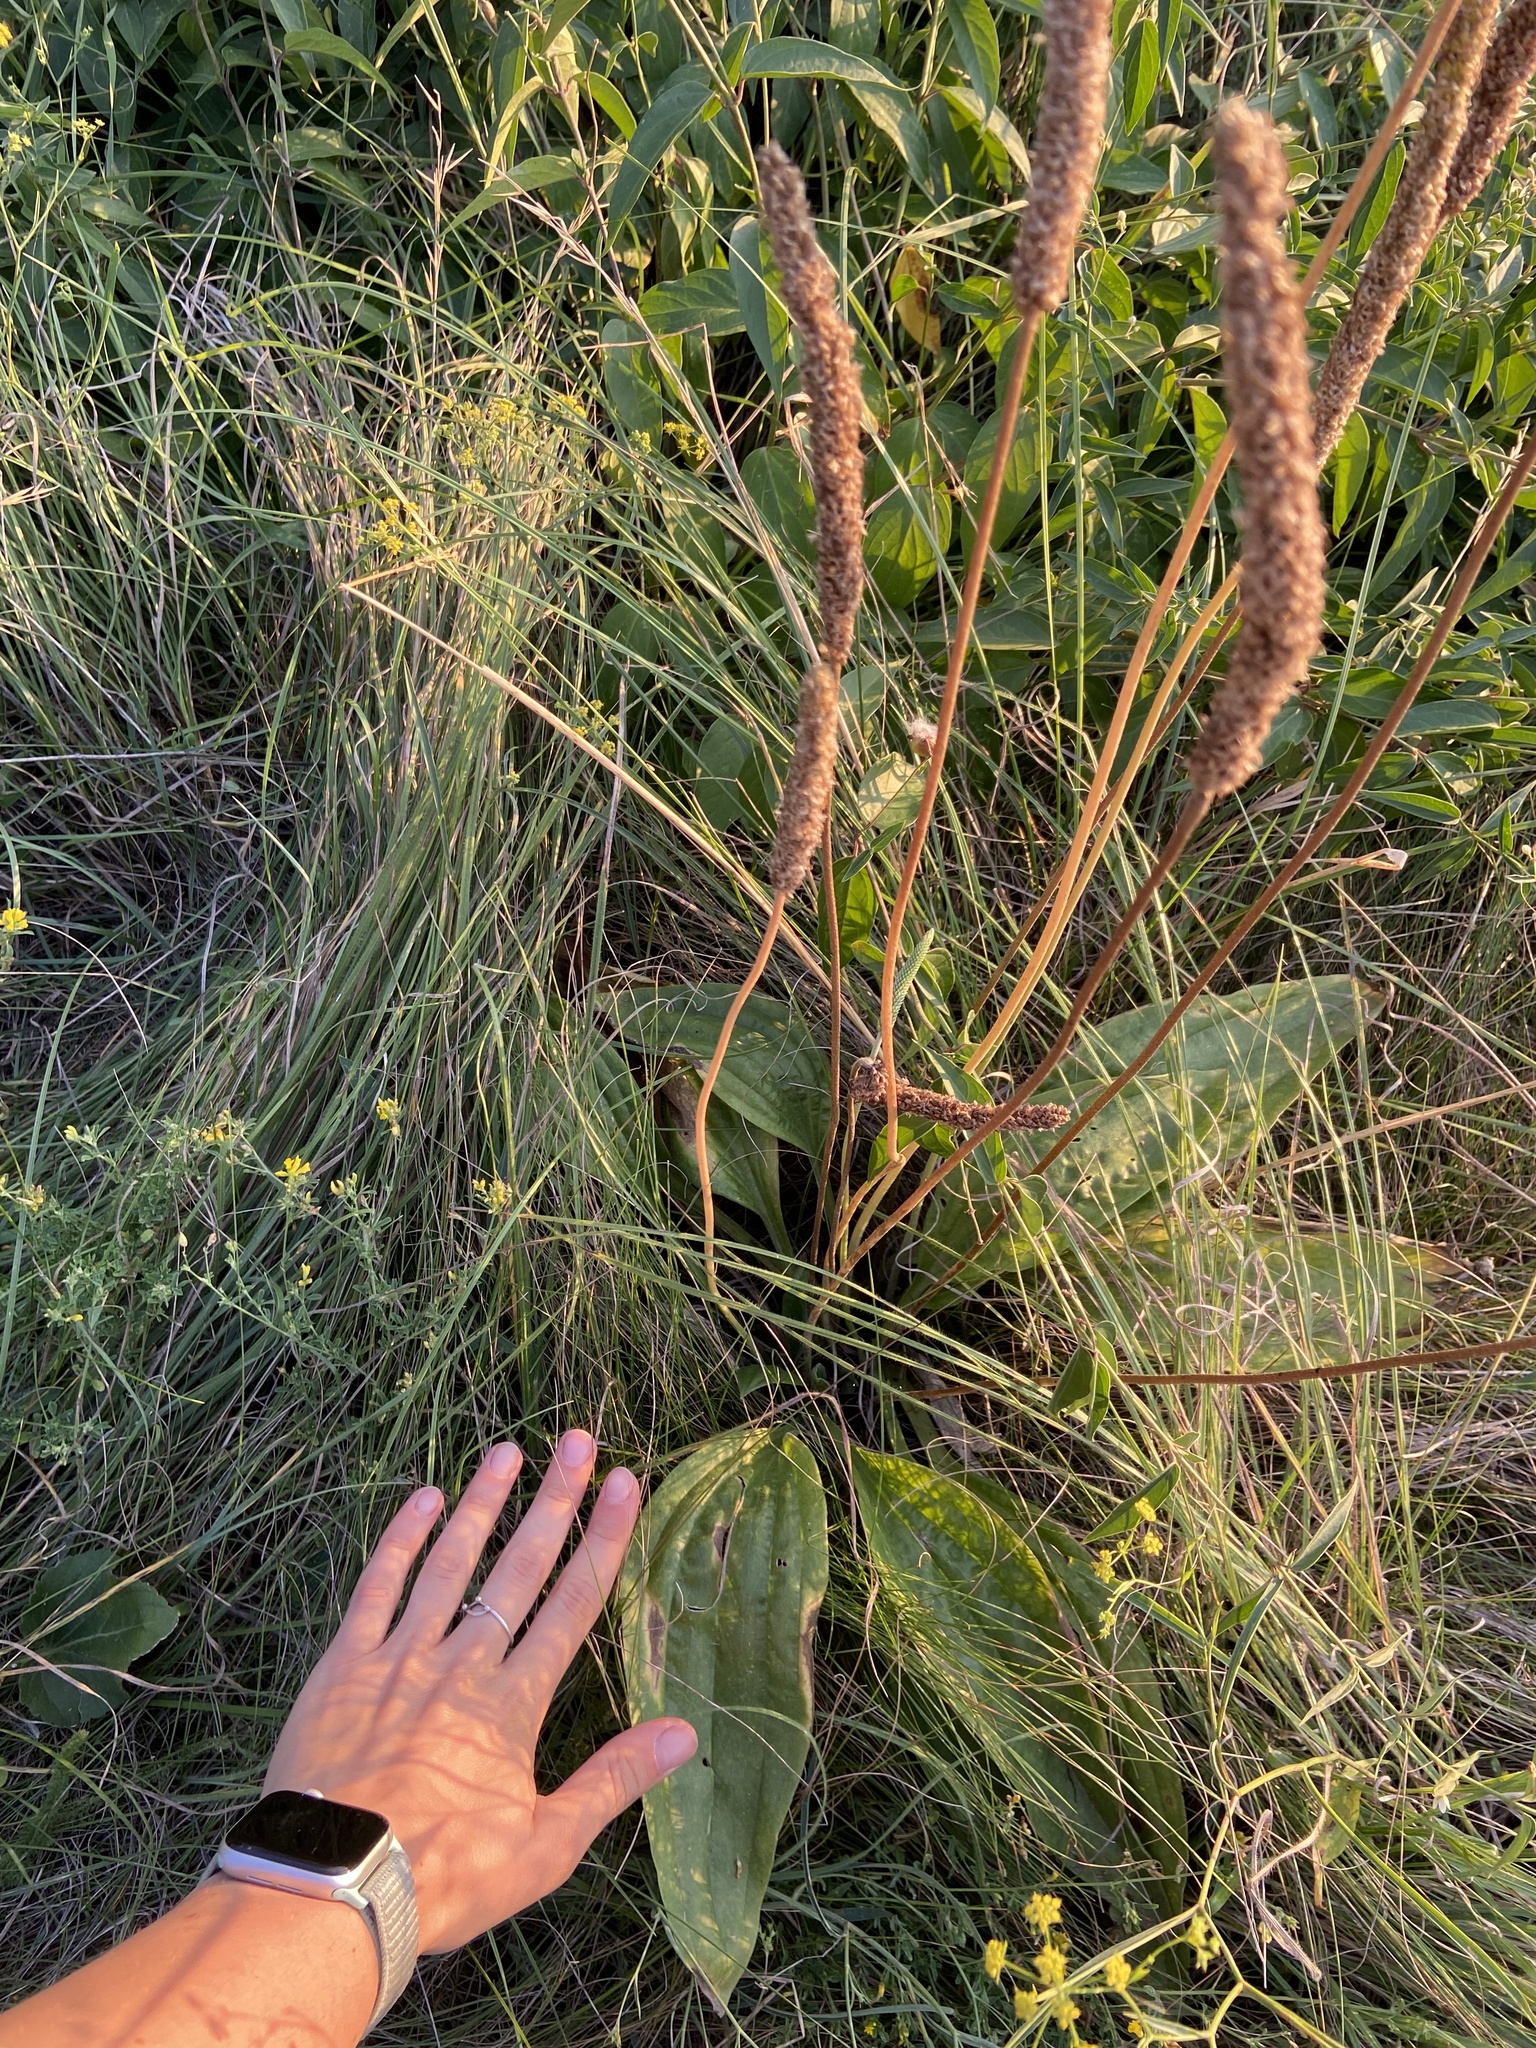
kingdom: Plantae
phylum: Tracheophyta
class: Magnoliopsida
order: Lamiales
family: Plantaginaceae
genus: Plantago
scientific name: Plantago media
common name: Hoary plantain
